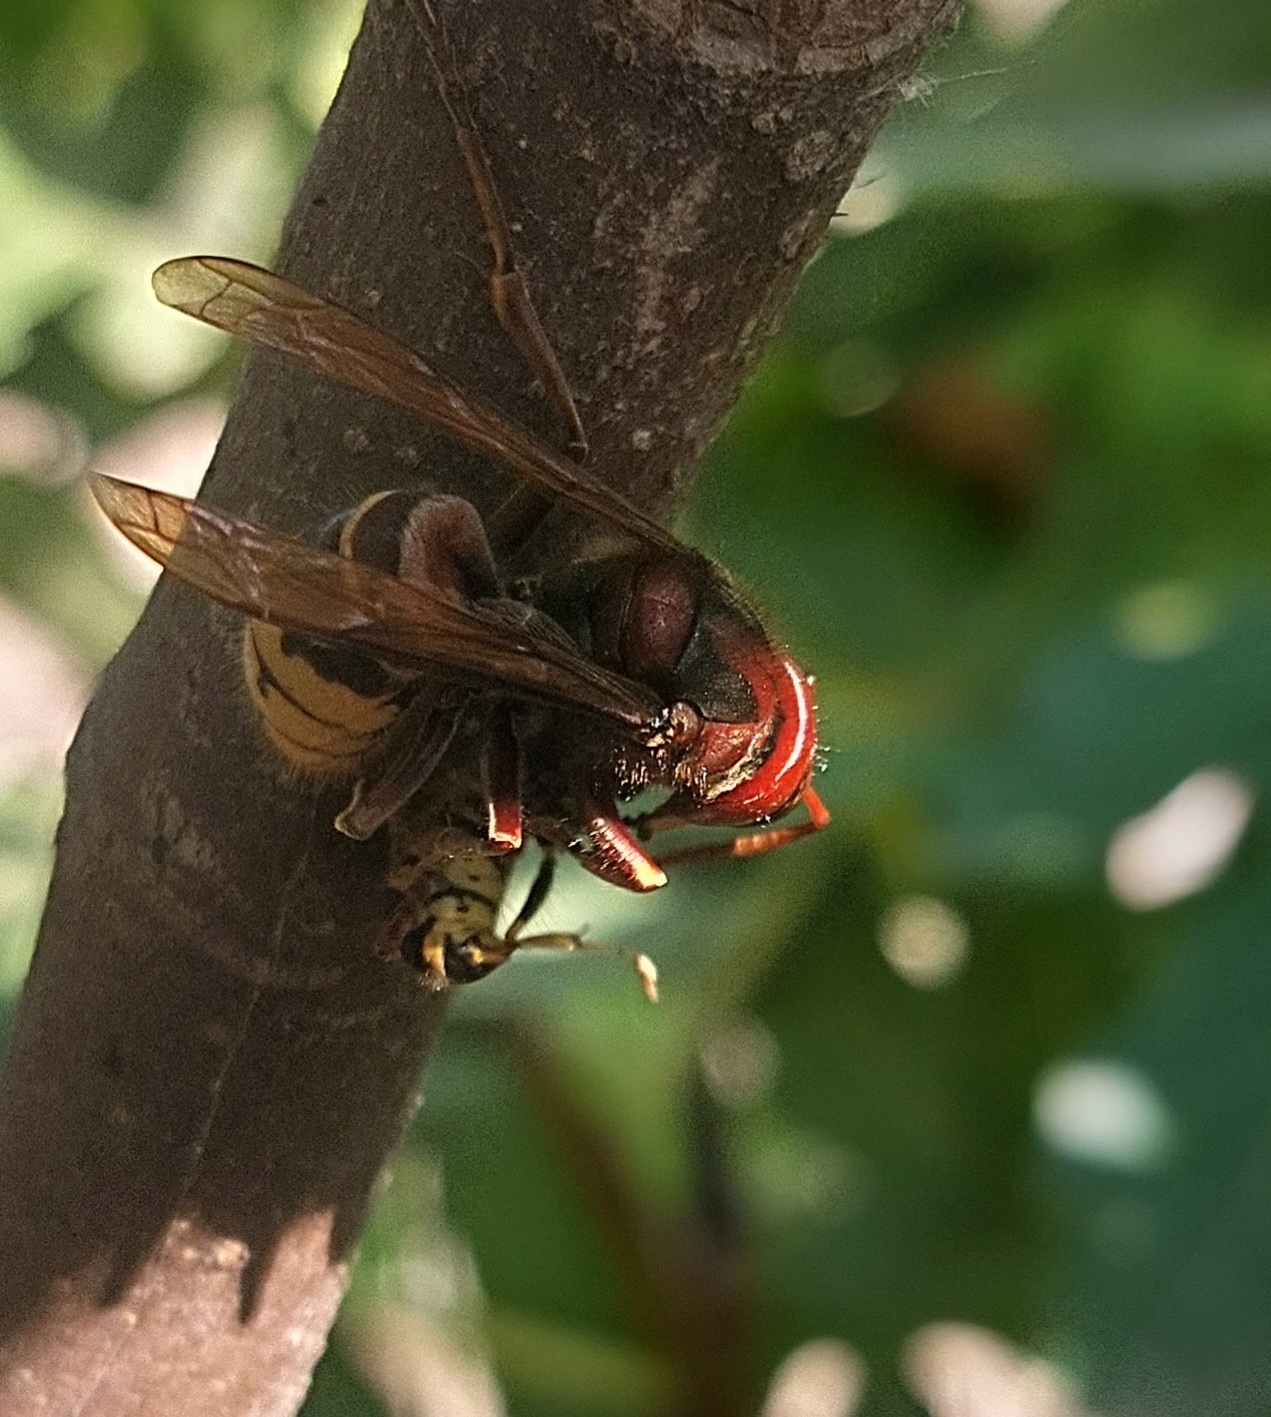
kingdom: Animalia
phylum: Arthropoda
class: Insecta
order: Hymenoptera
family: Vespidae
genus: Vespa
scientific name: Vespa crabro
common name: Hornet
